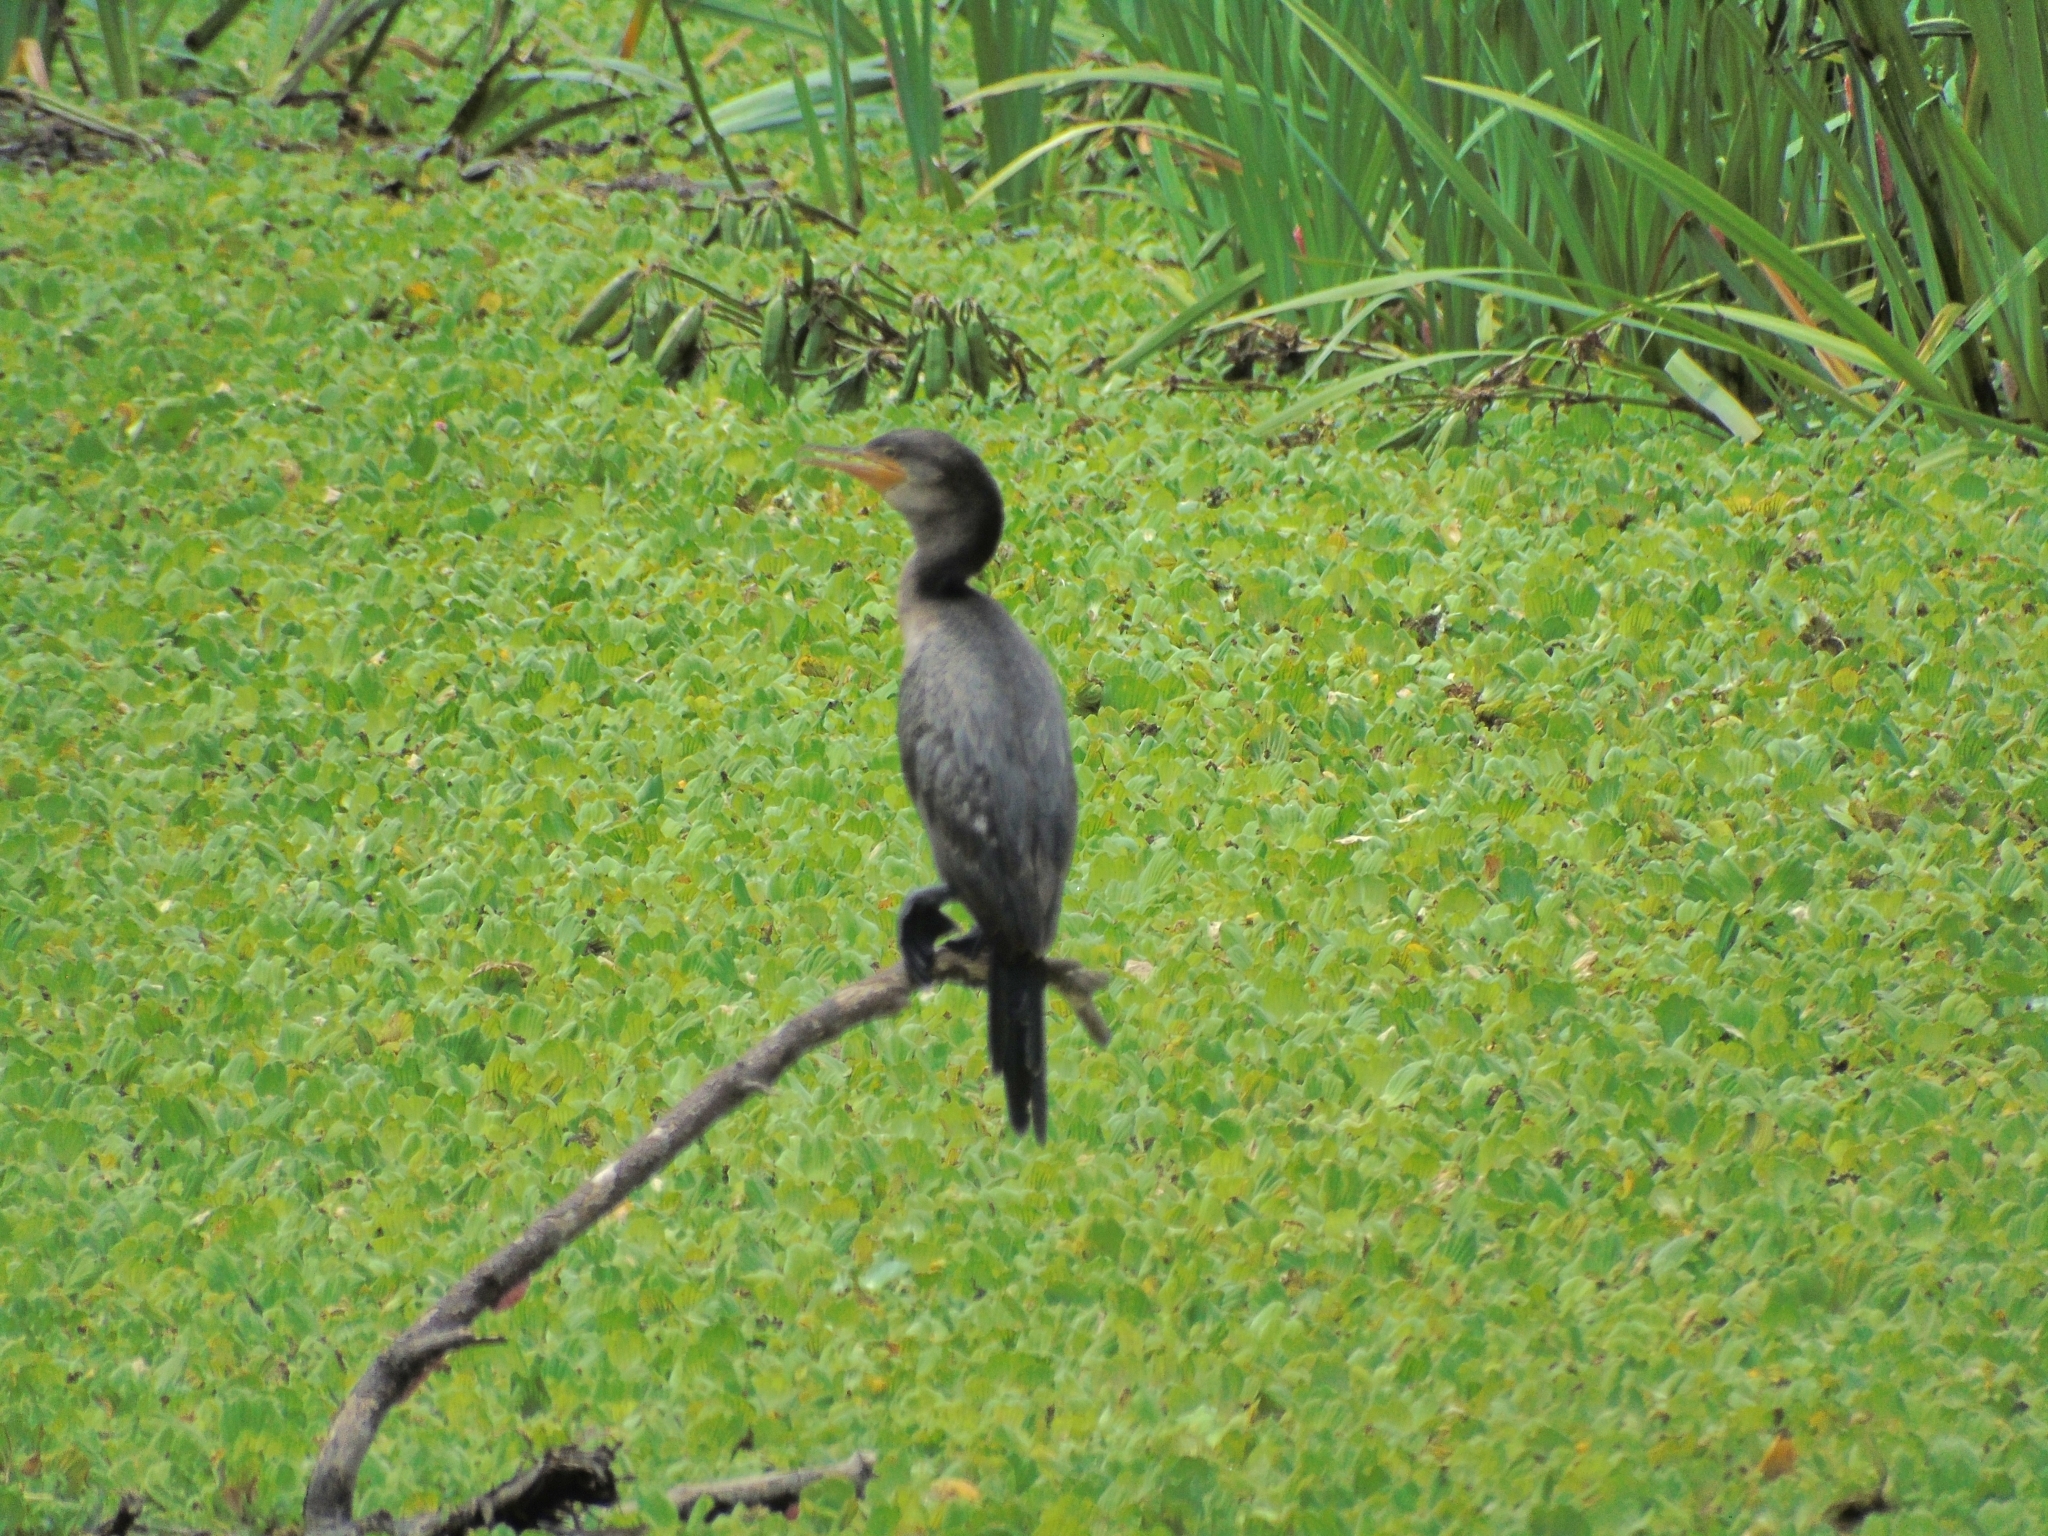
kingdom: Animalia
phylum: Chordata
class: Aves
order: Suliformes
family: Phalacrocoracidae
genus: Phalacrocorax
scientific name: Phalacrocorax brasilianus
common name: Neotropic cormorant
